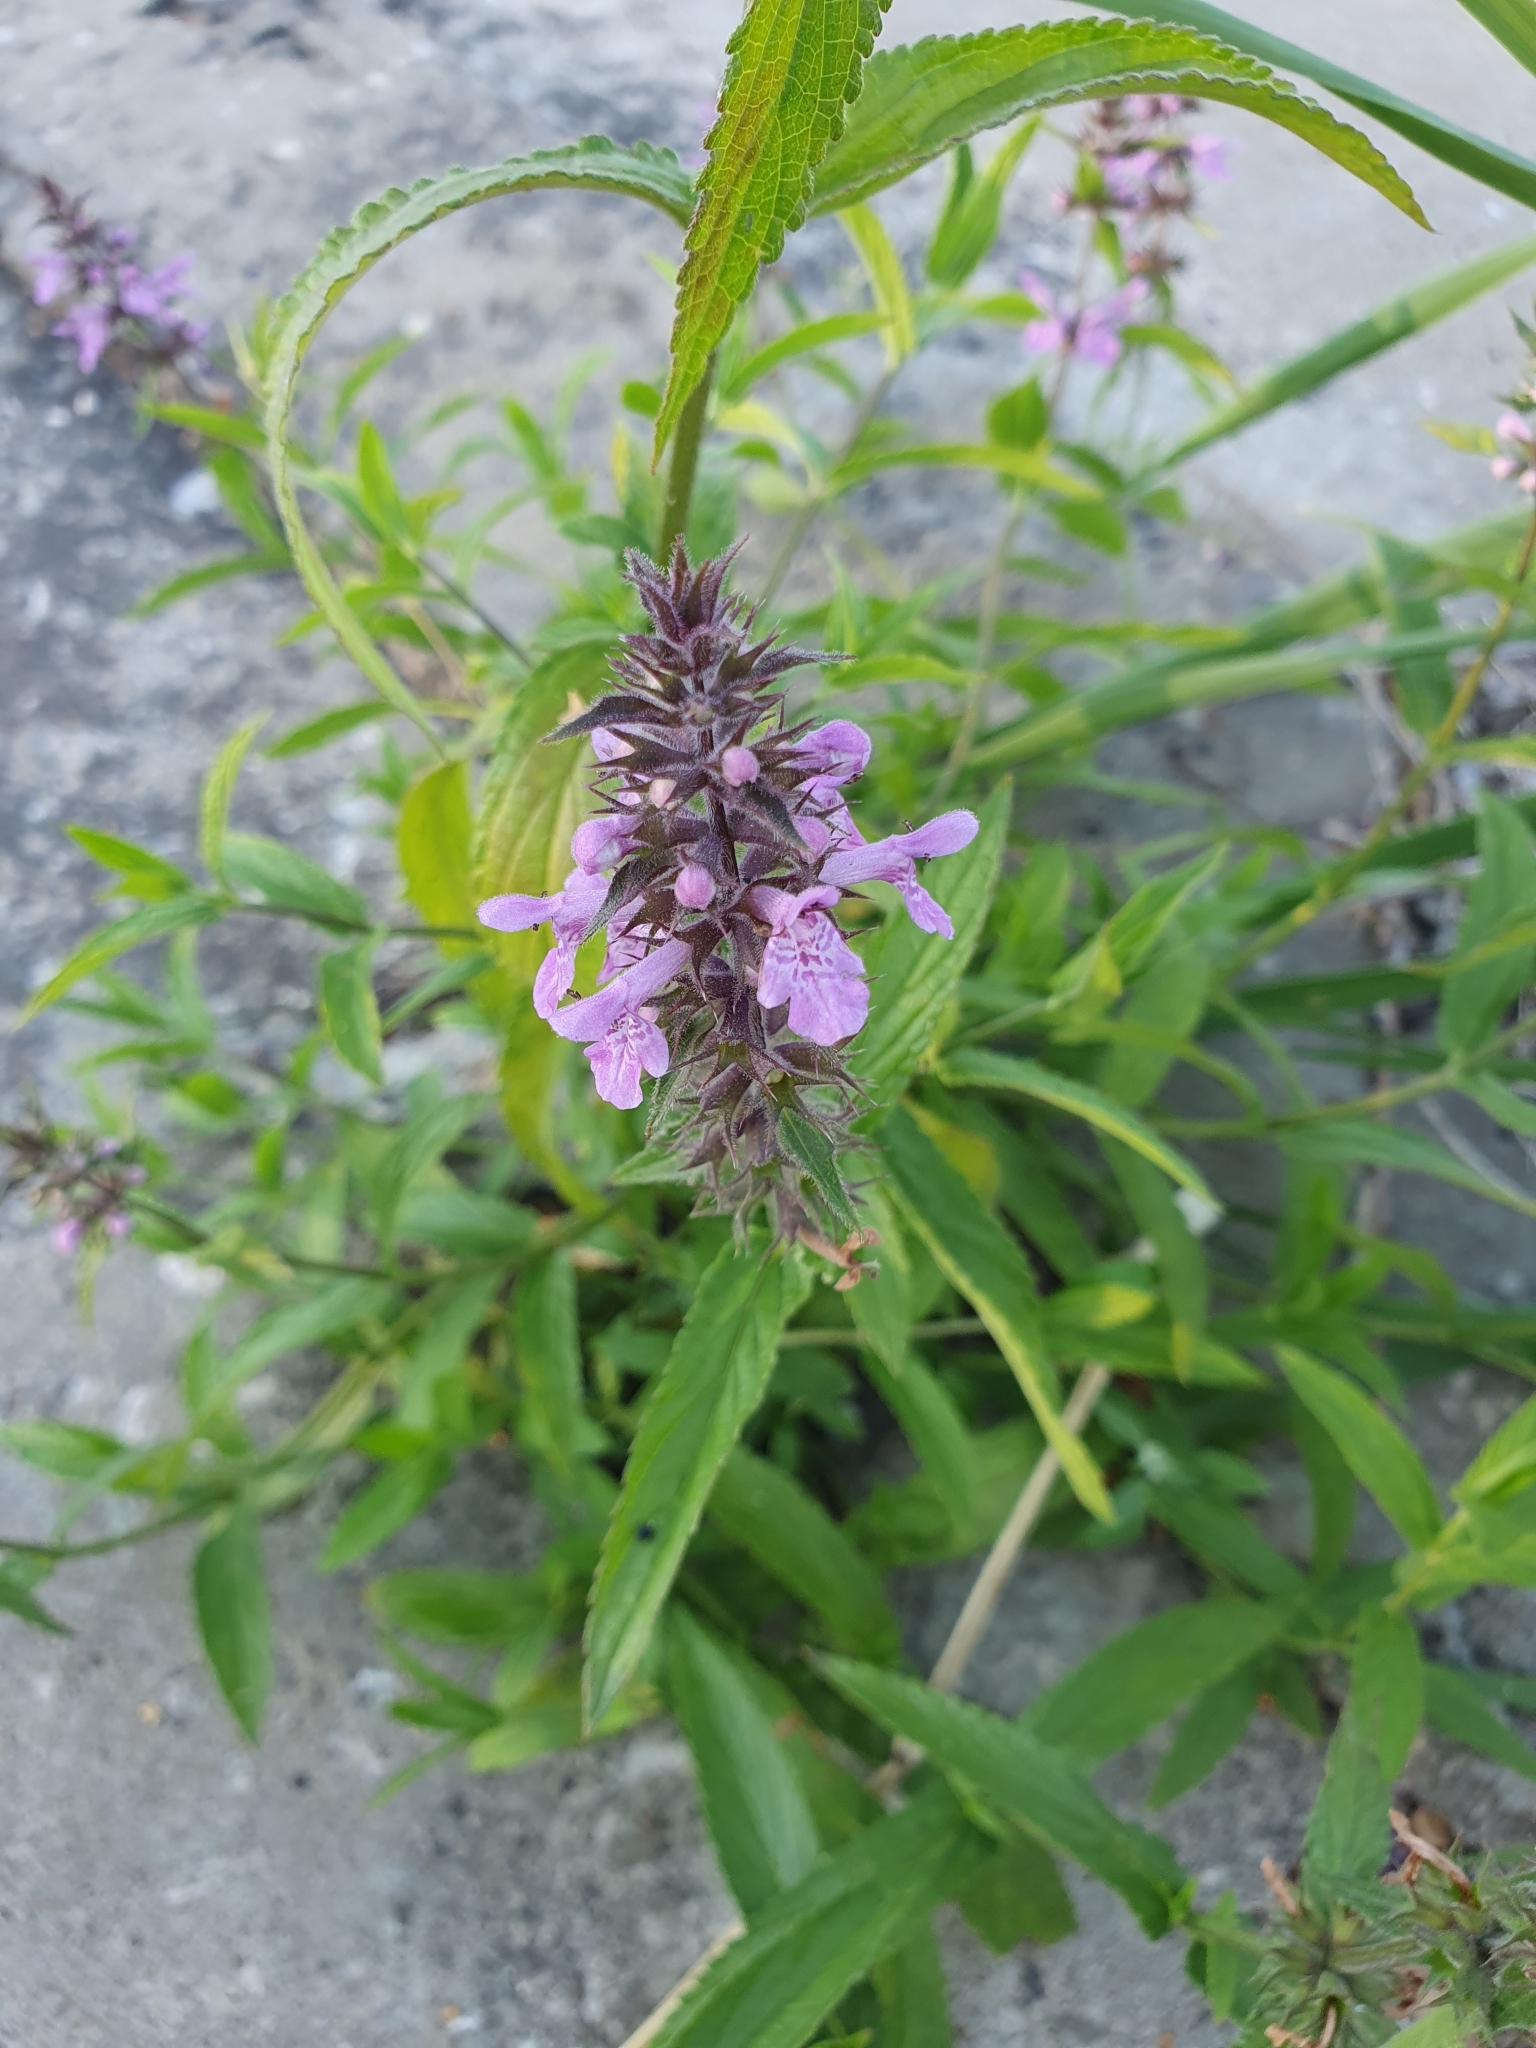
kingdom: Plantae
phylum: Tracheophyta
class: Magnoliopsida
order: Lamiales
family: Lamiaceae
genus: Stachys
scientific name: Stachys palustris
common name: Marsh woundwort
